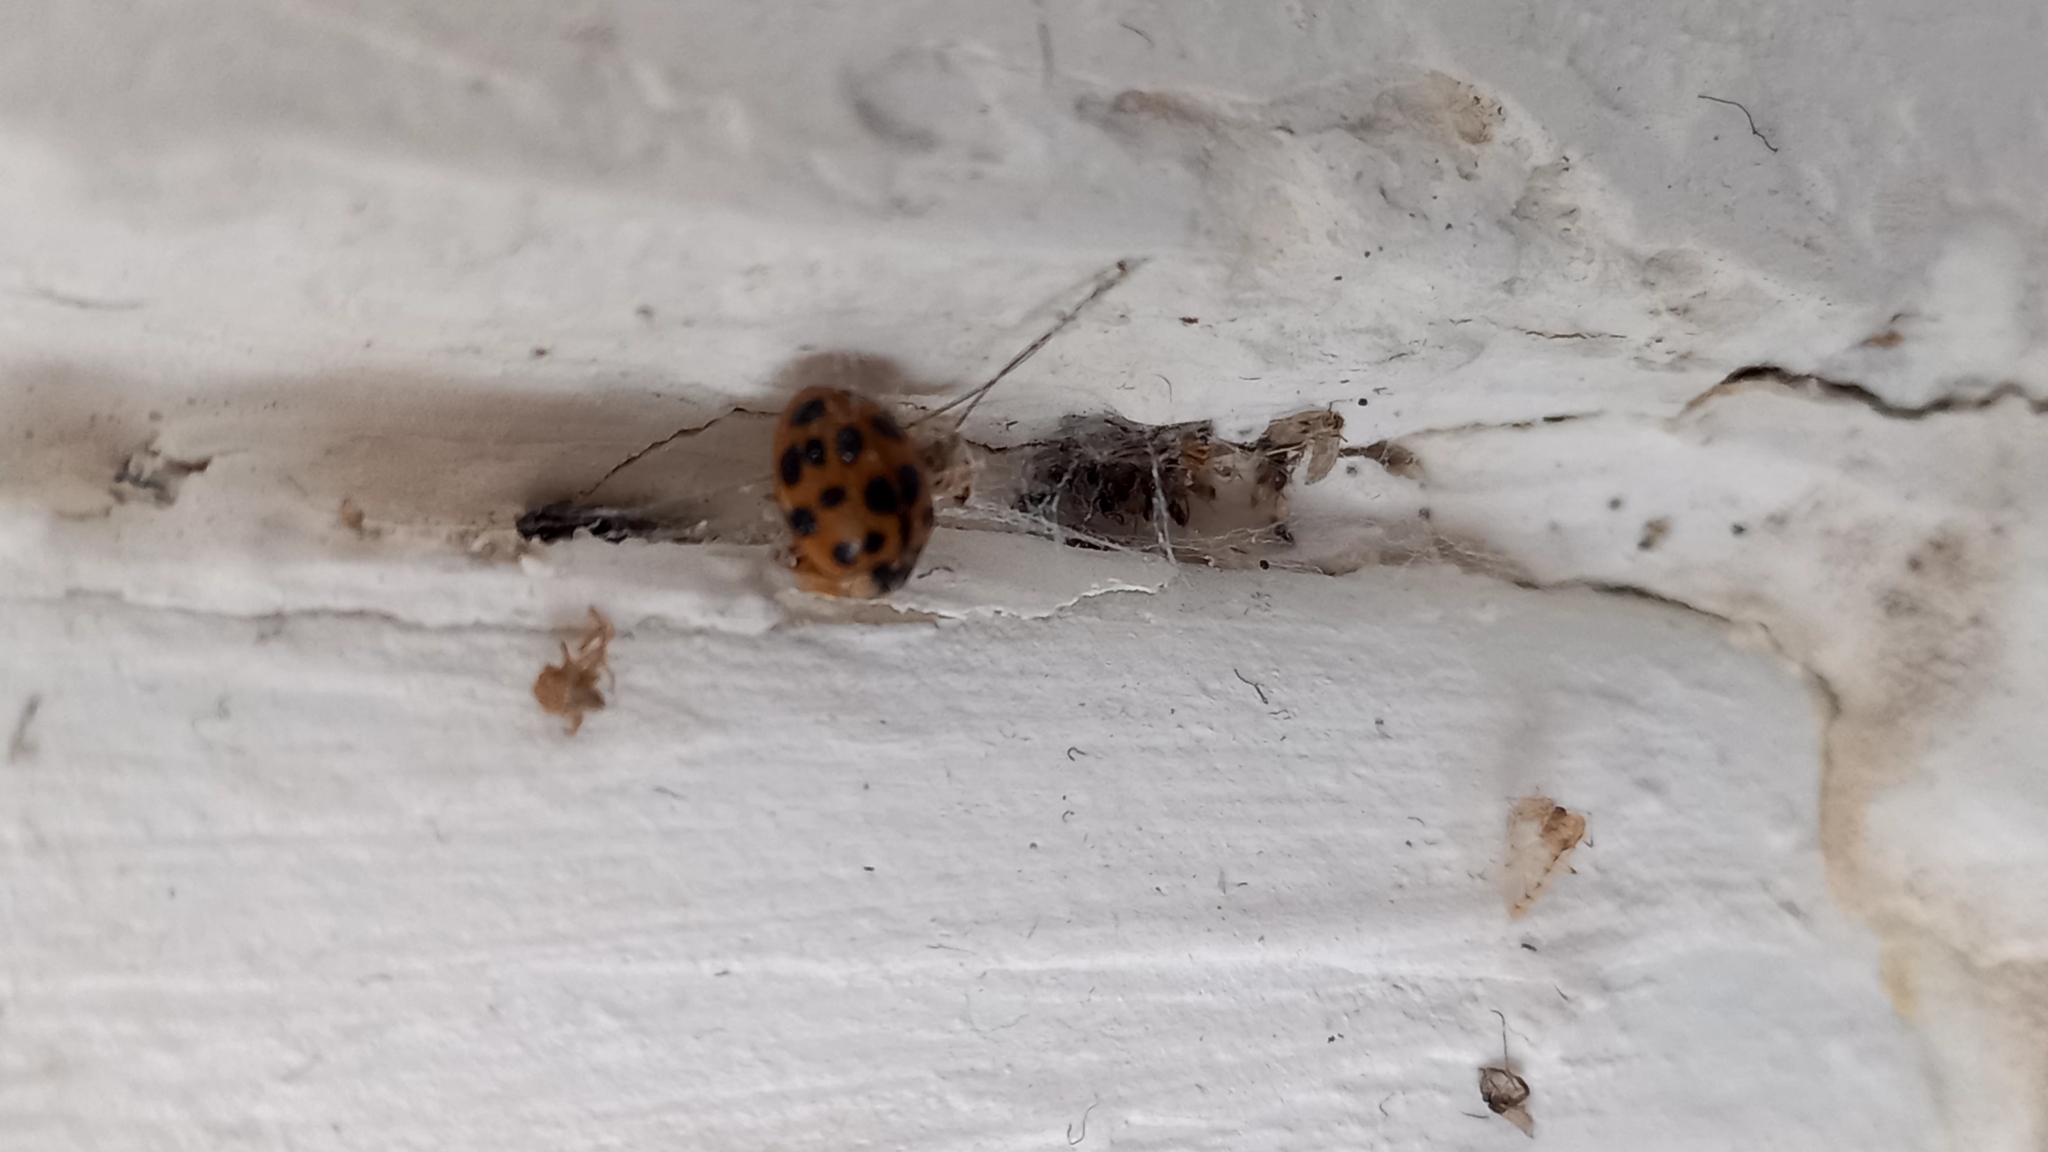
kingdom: Animalia
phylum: Arthropoda
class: Insecta
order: Coleoptera
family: Coccinellidae
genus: Harmonia
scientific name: Harmonia axyridis
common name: Harlequin ladybird
